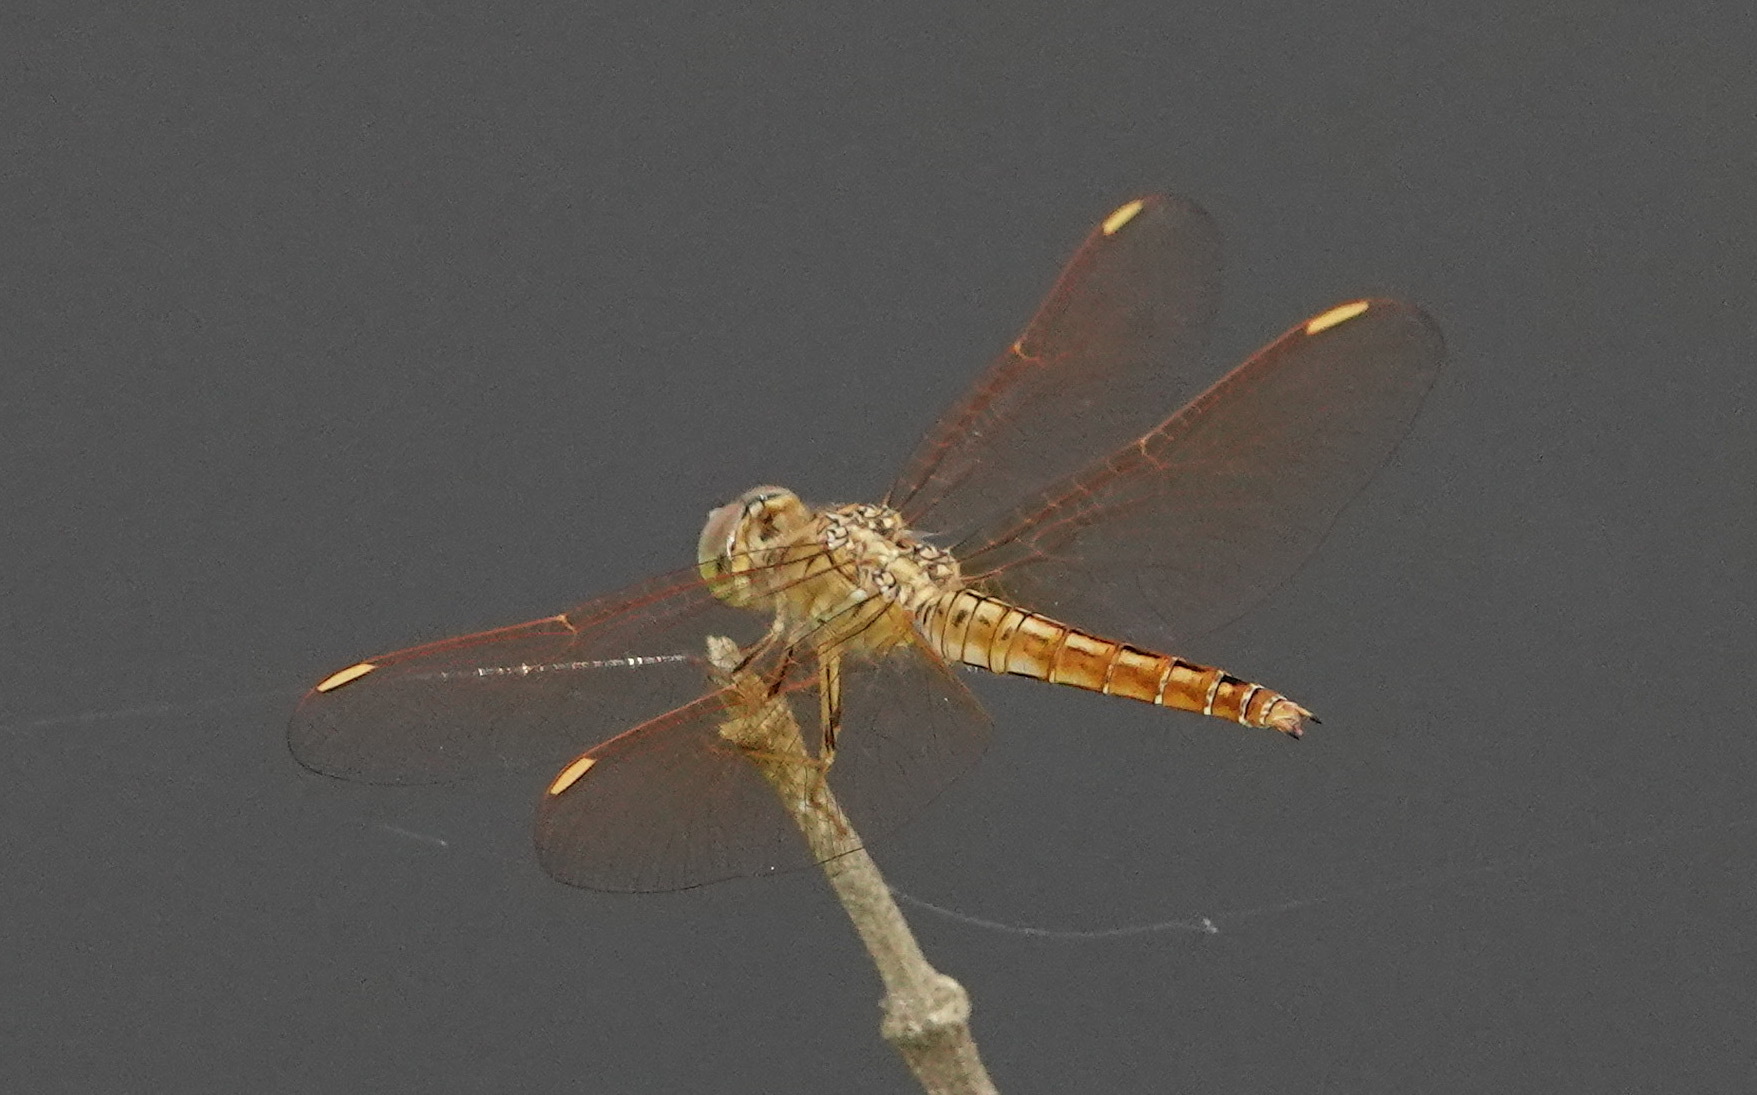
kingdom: Animalia
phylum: Arthropoda
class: Insecta
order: Odonata
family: Libellulidae
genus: Brachythemis
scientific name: Brachythemis contaminata
